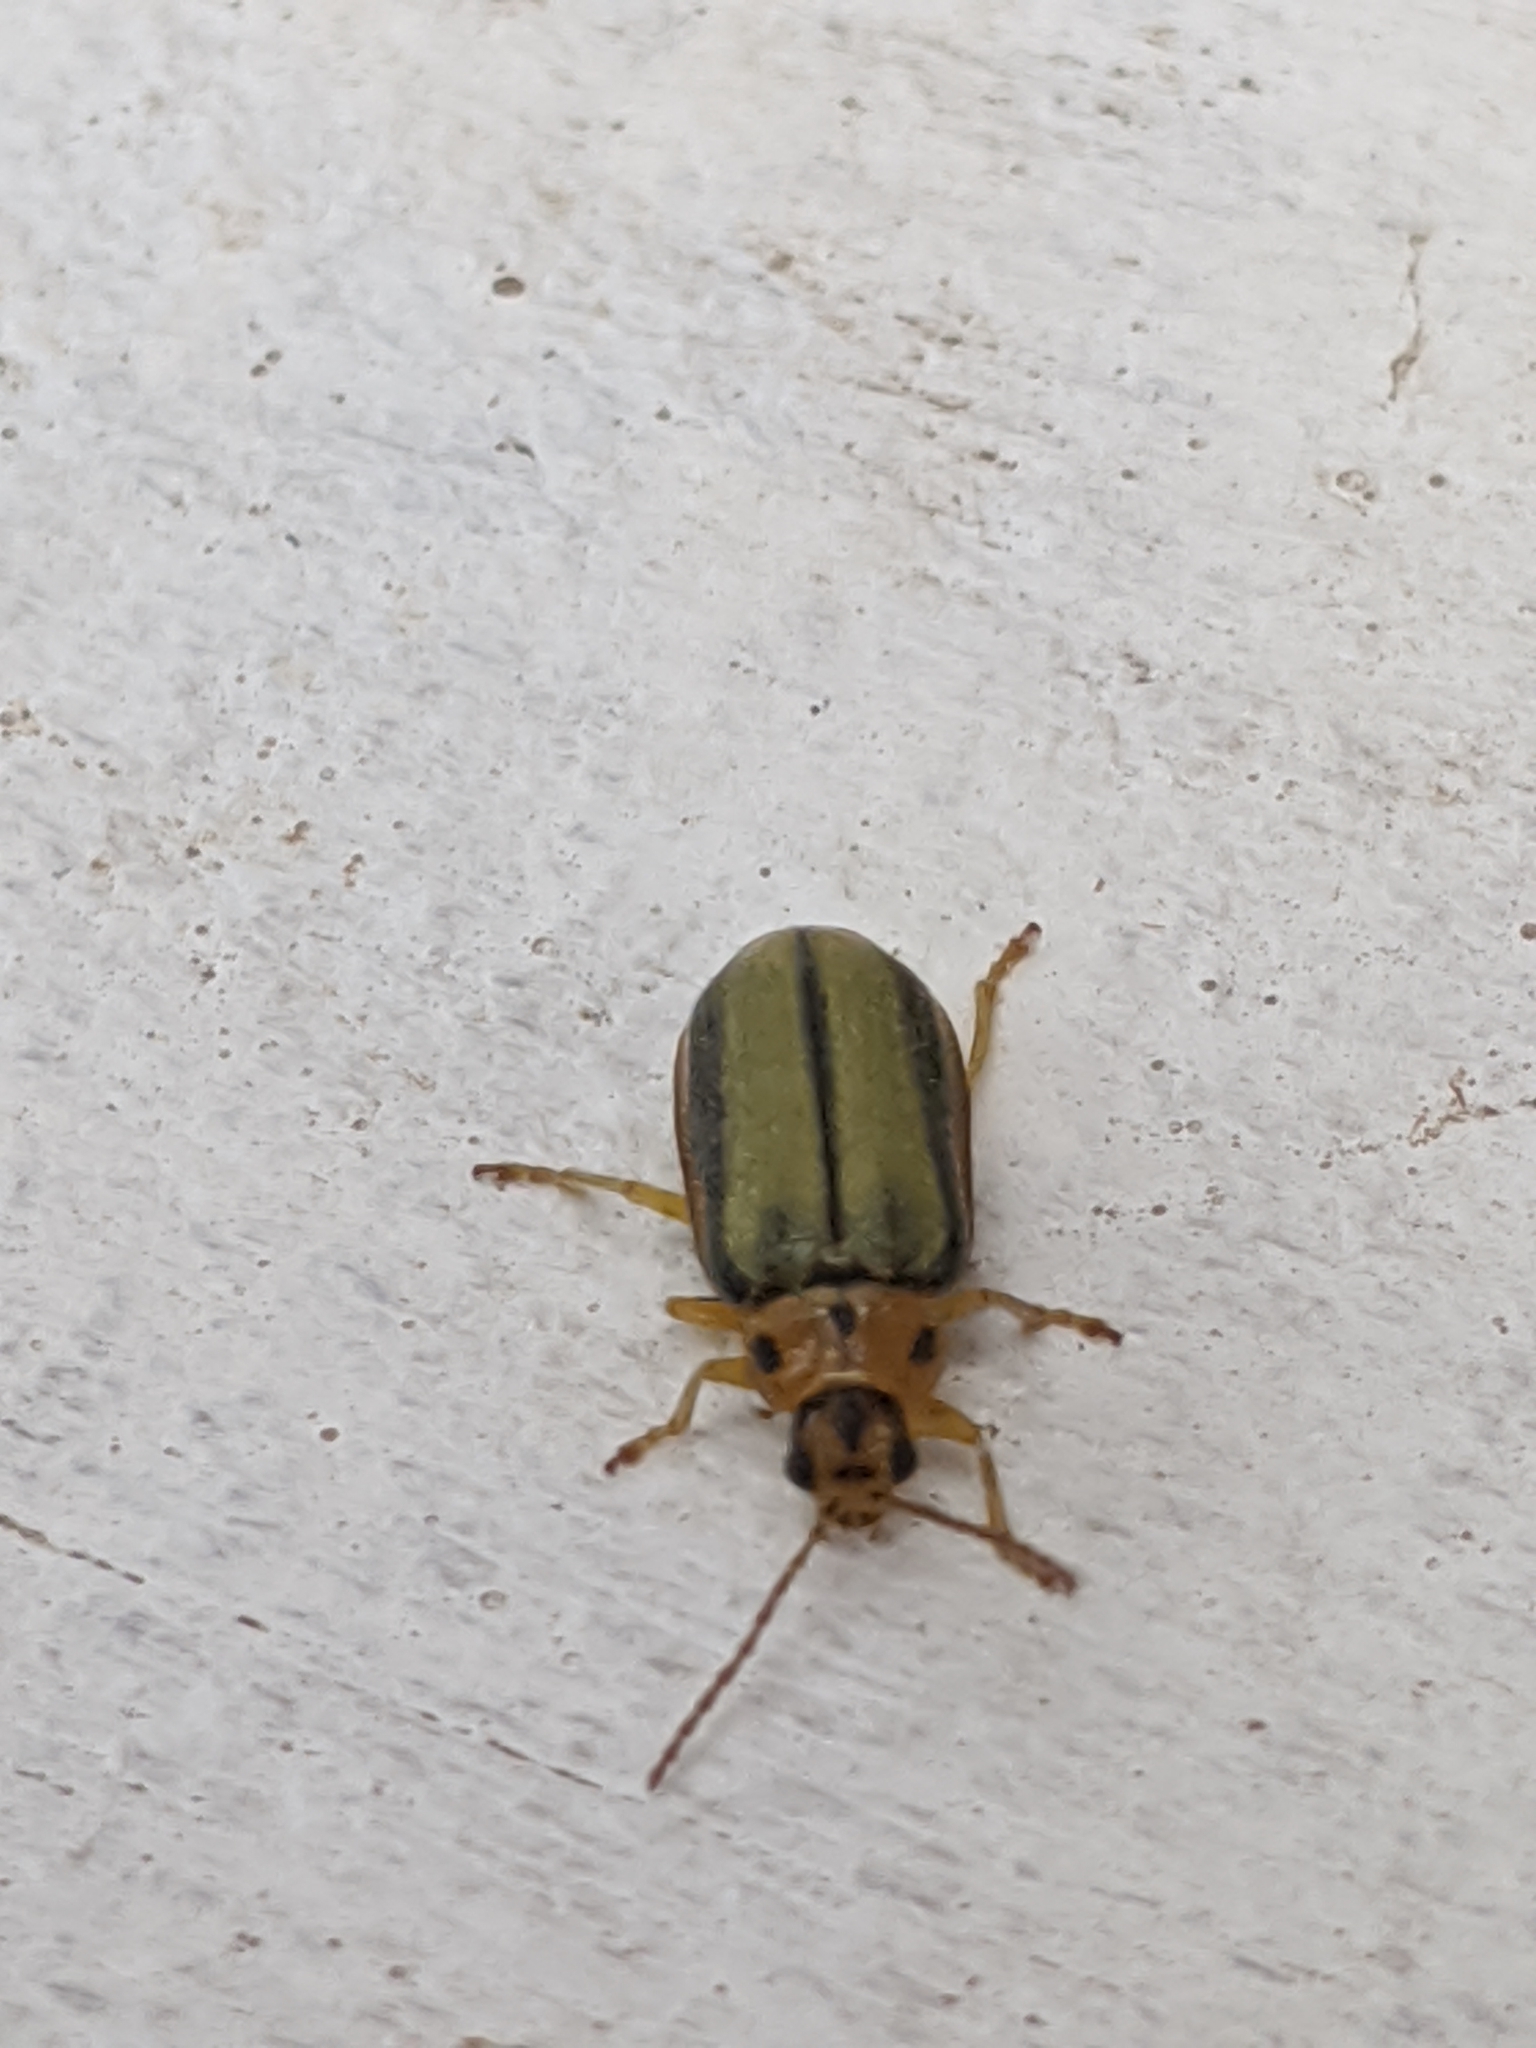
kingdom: Animalia
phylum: Arthropoda
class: Insecta
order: Coleoptera
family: Chrysomelidae
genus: Xanthogaleruca
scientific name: Xanthogaleruca luteola
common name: Elm leaf beetle
